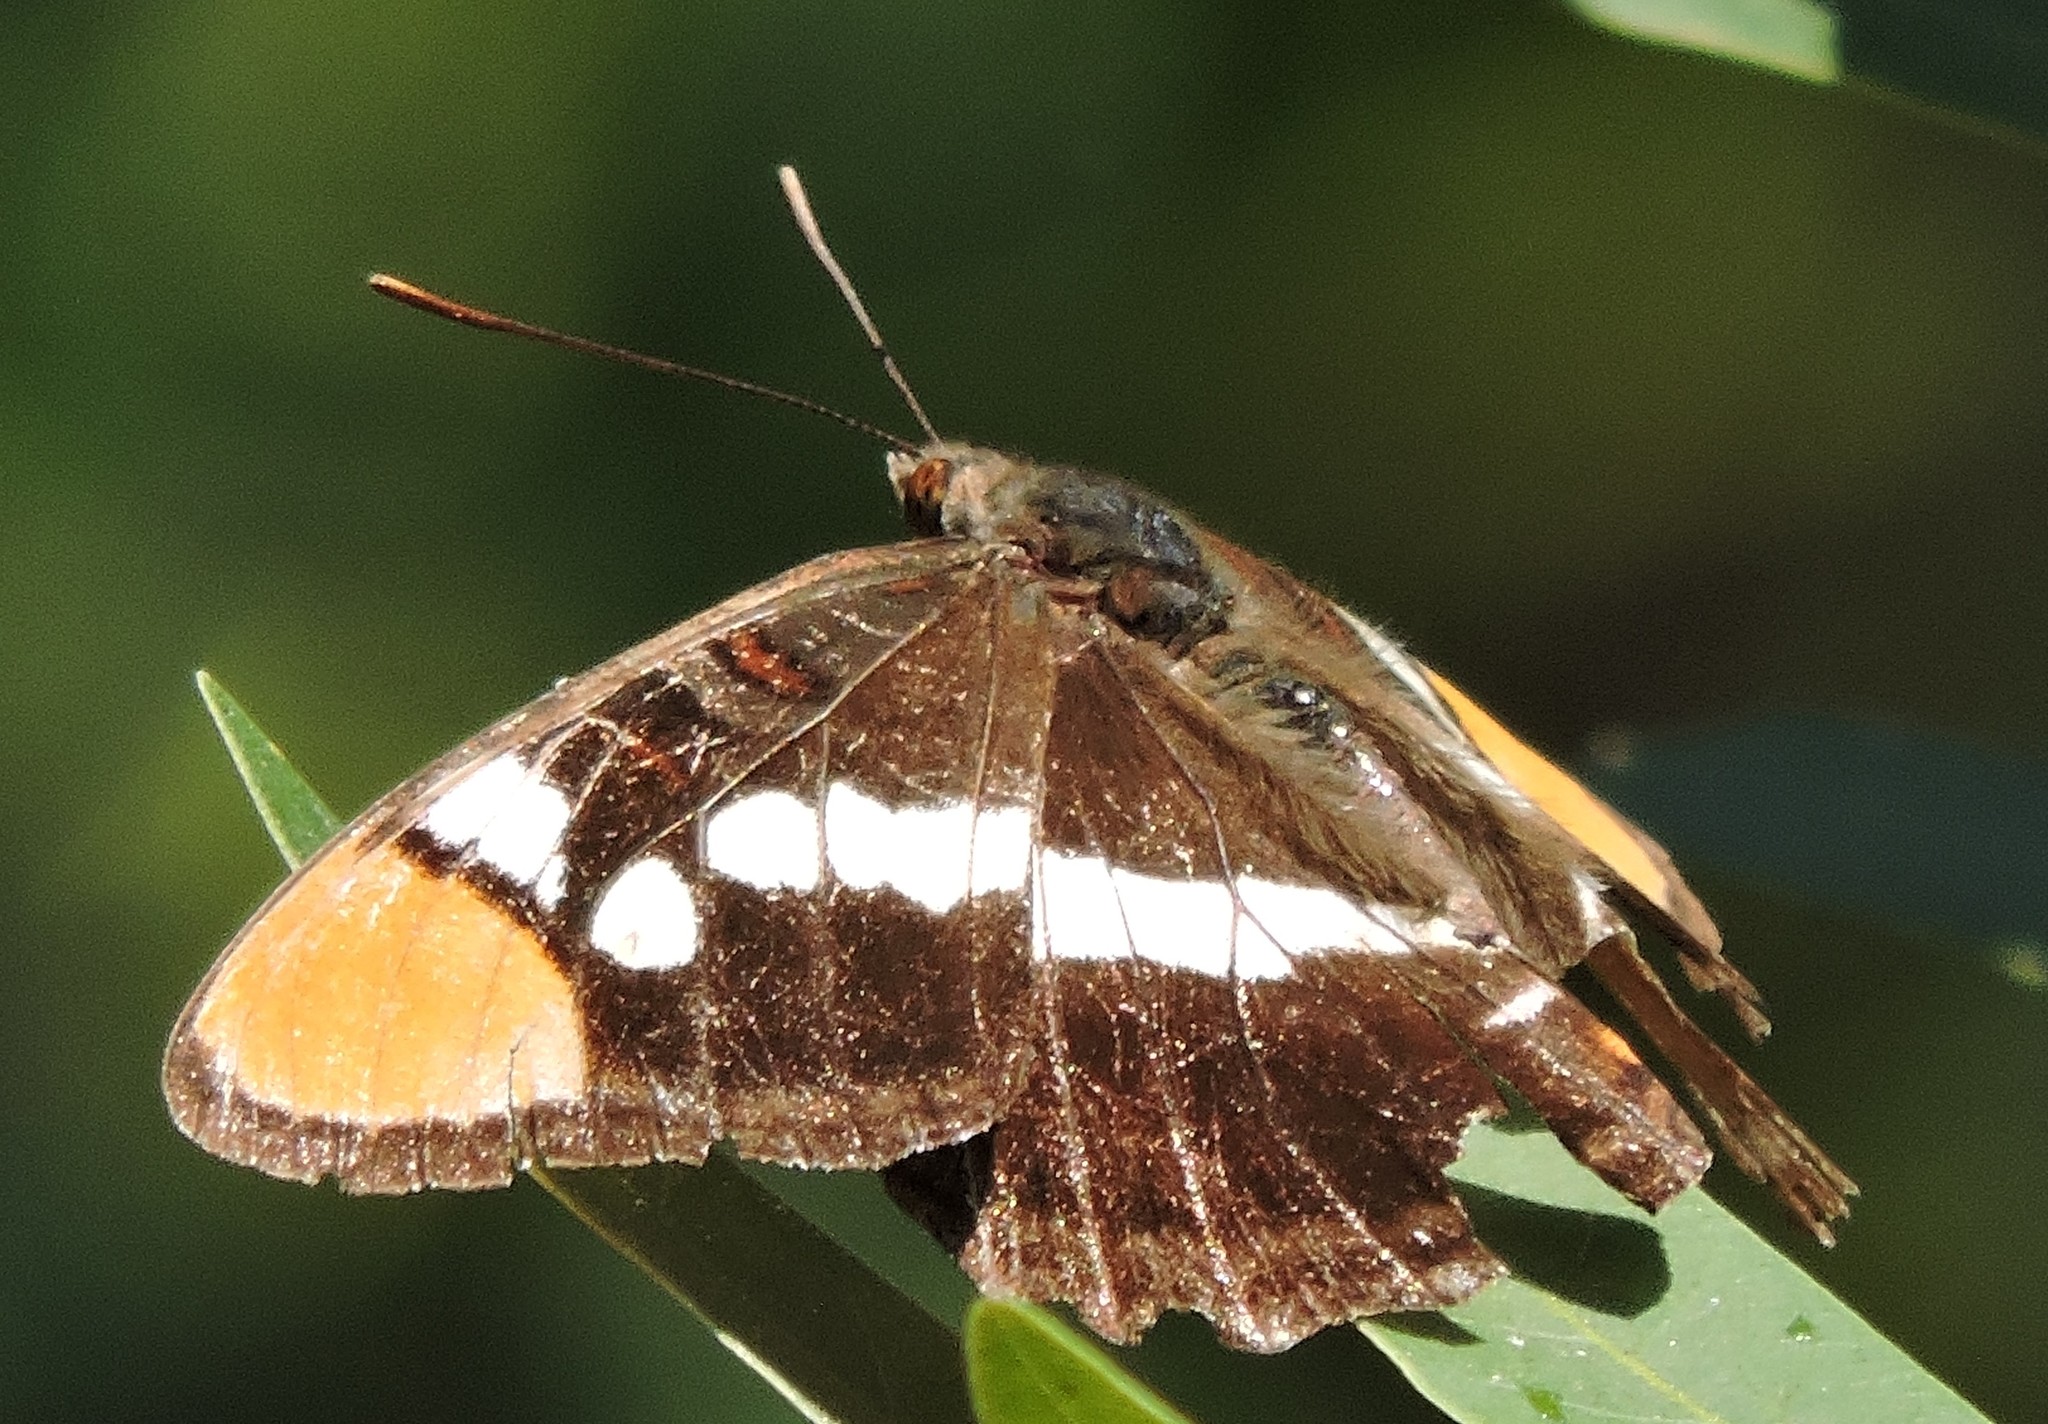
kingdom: Animalia
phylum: Arthropoda
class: Insecta
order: Lepidoptera
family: Nymphalidae
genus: Limenitis
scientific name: Limenitis bredowii
